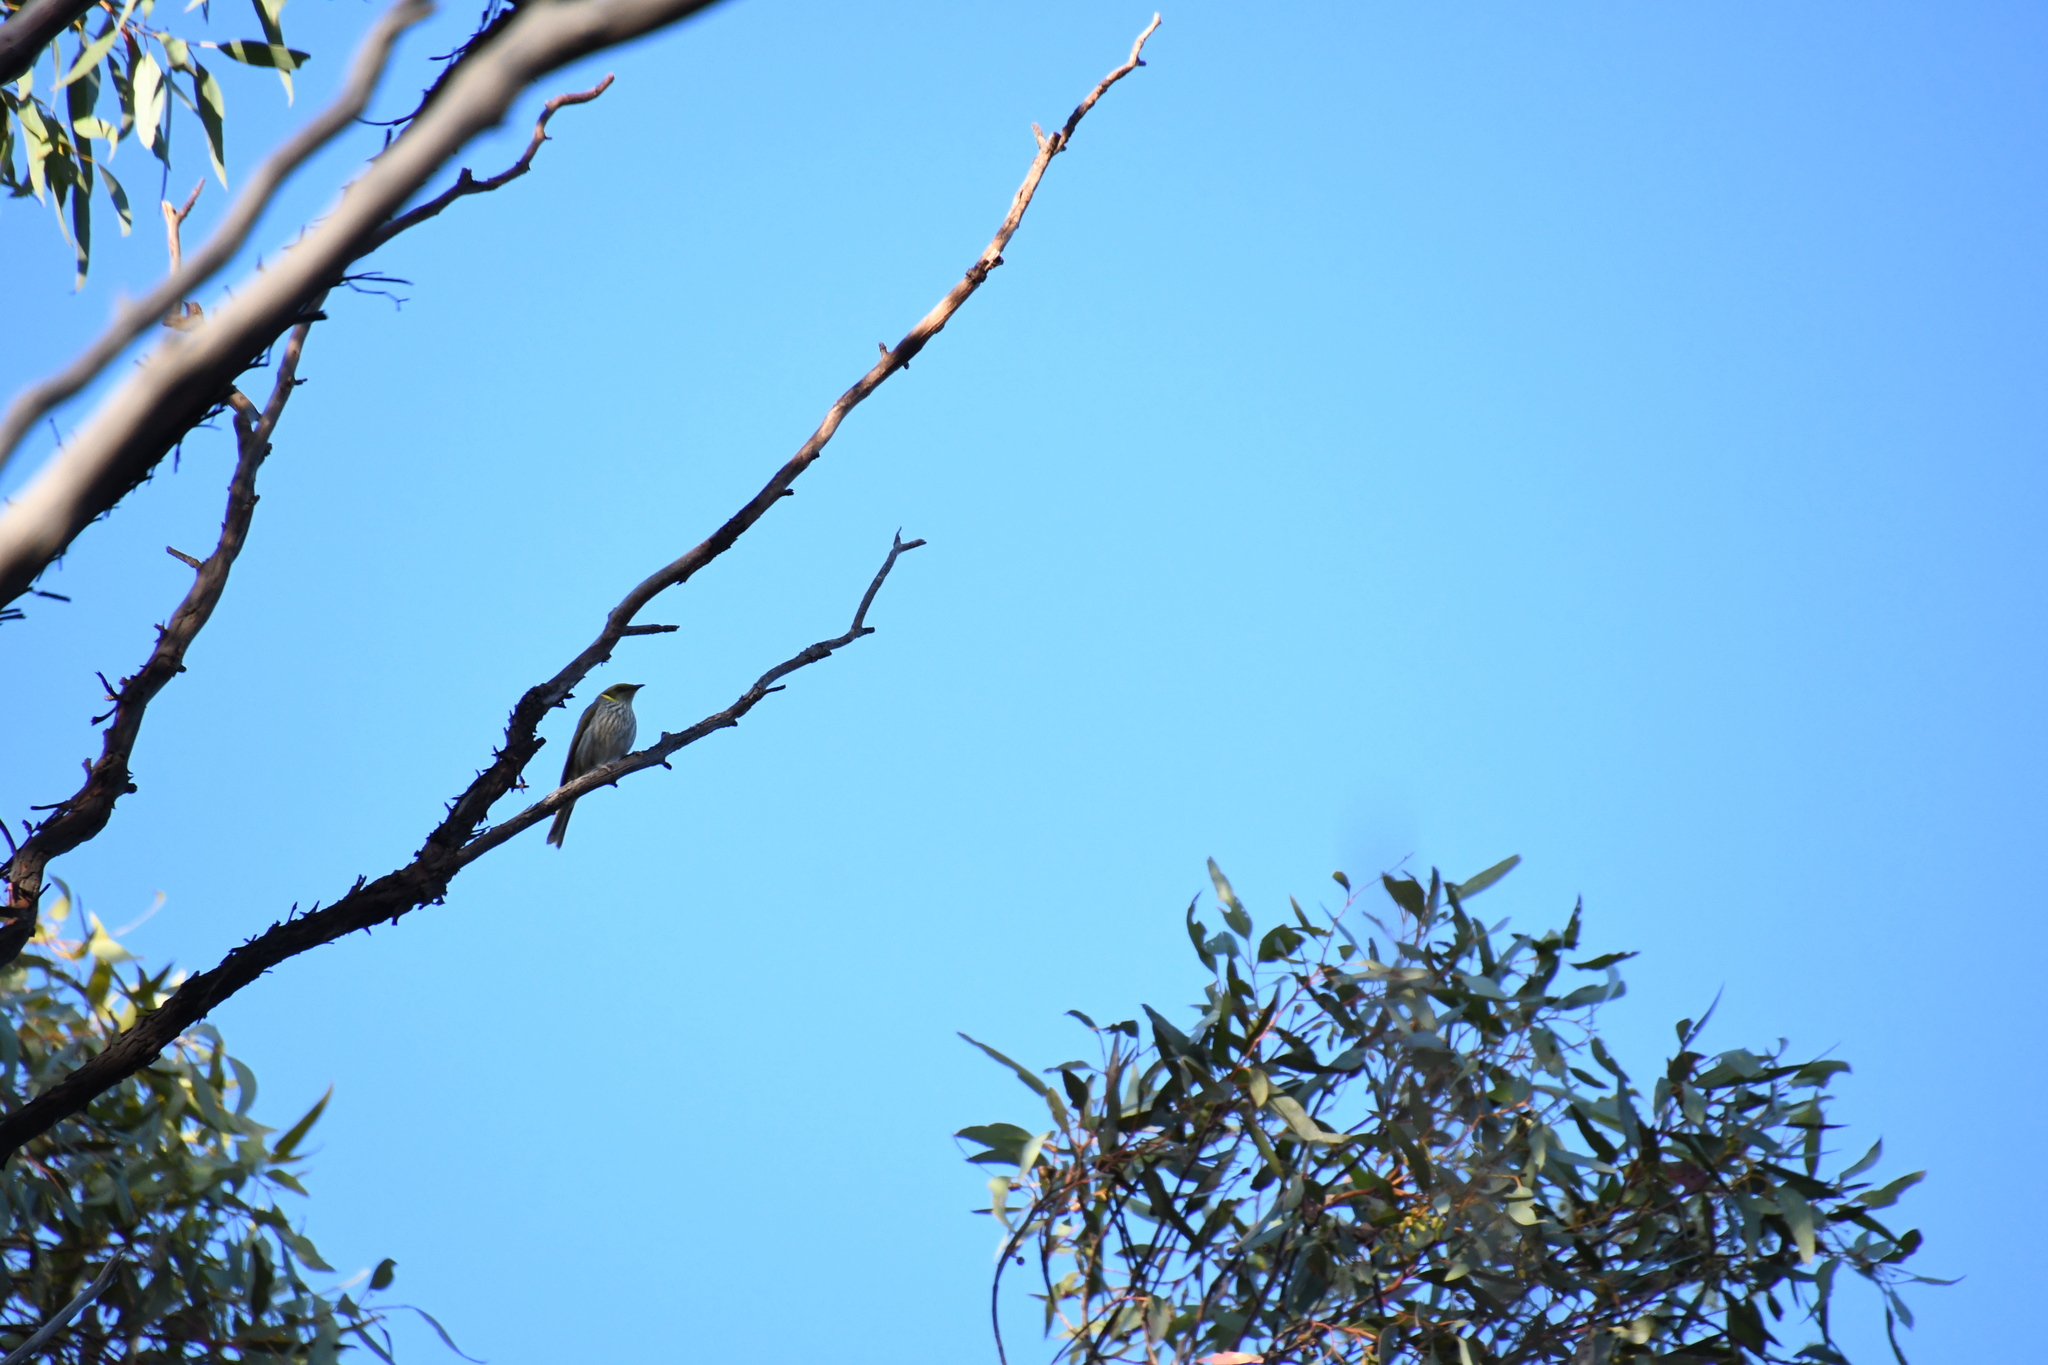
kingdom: Animalia
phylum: Chordata
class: Aves
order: Passeriformes
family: Meliphagidae
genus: Ptilotula
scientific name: Ptilotula ornata
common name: Yellow-plumed honeyeater
